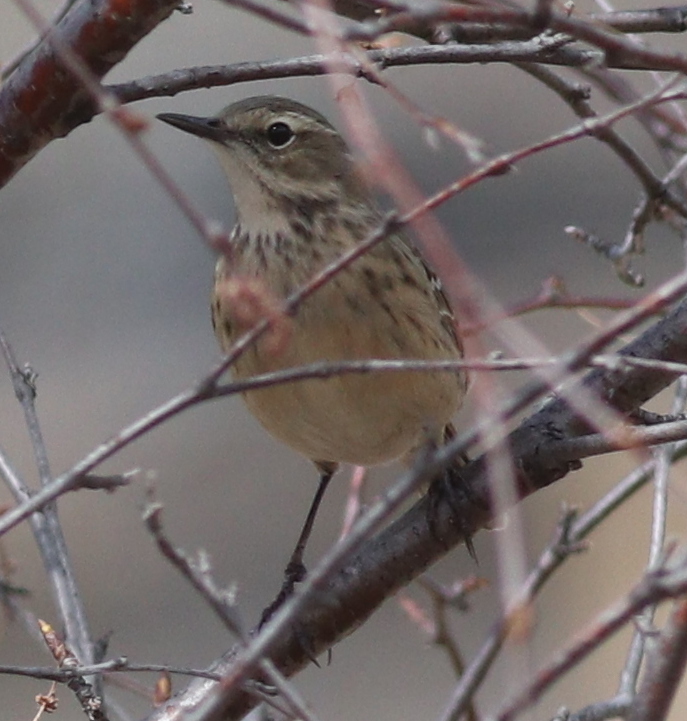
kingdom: Animalia
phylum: Chordata
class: Aves
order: Passeriformes
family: Motacillidae
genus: Anthus
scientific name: Anthus spinoletta
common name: Water pipit
